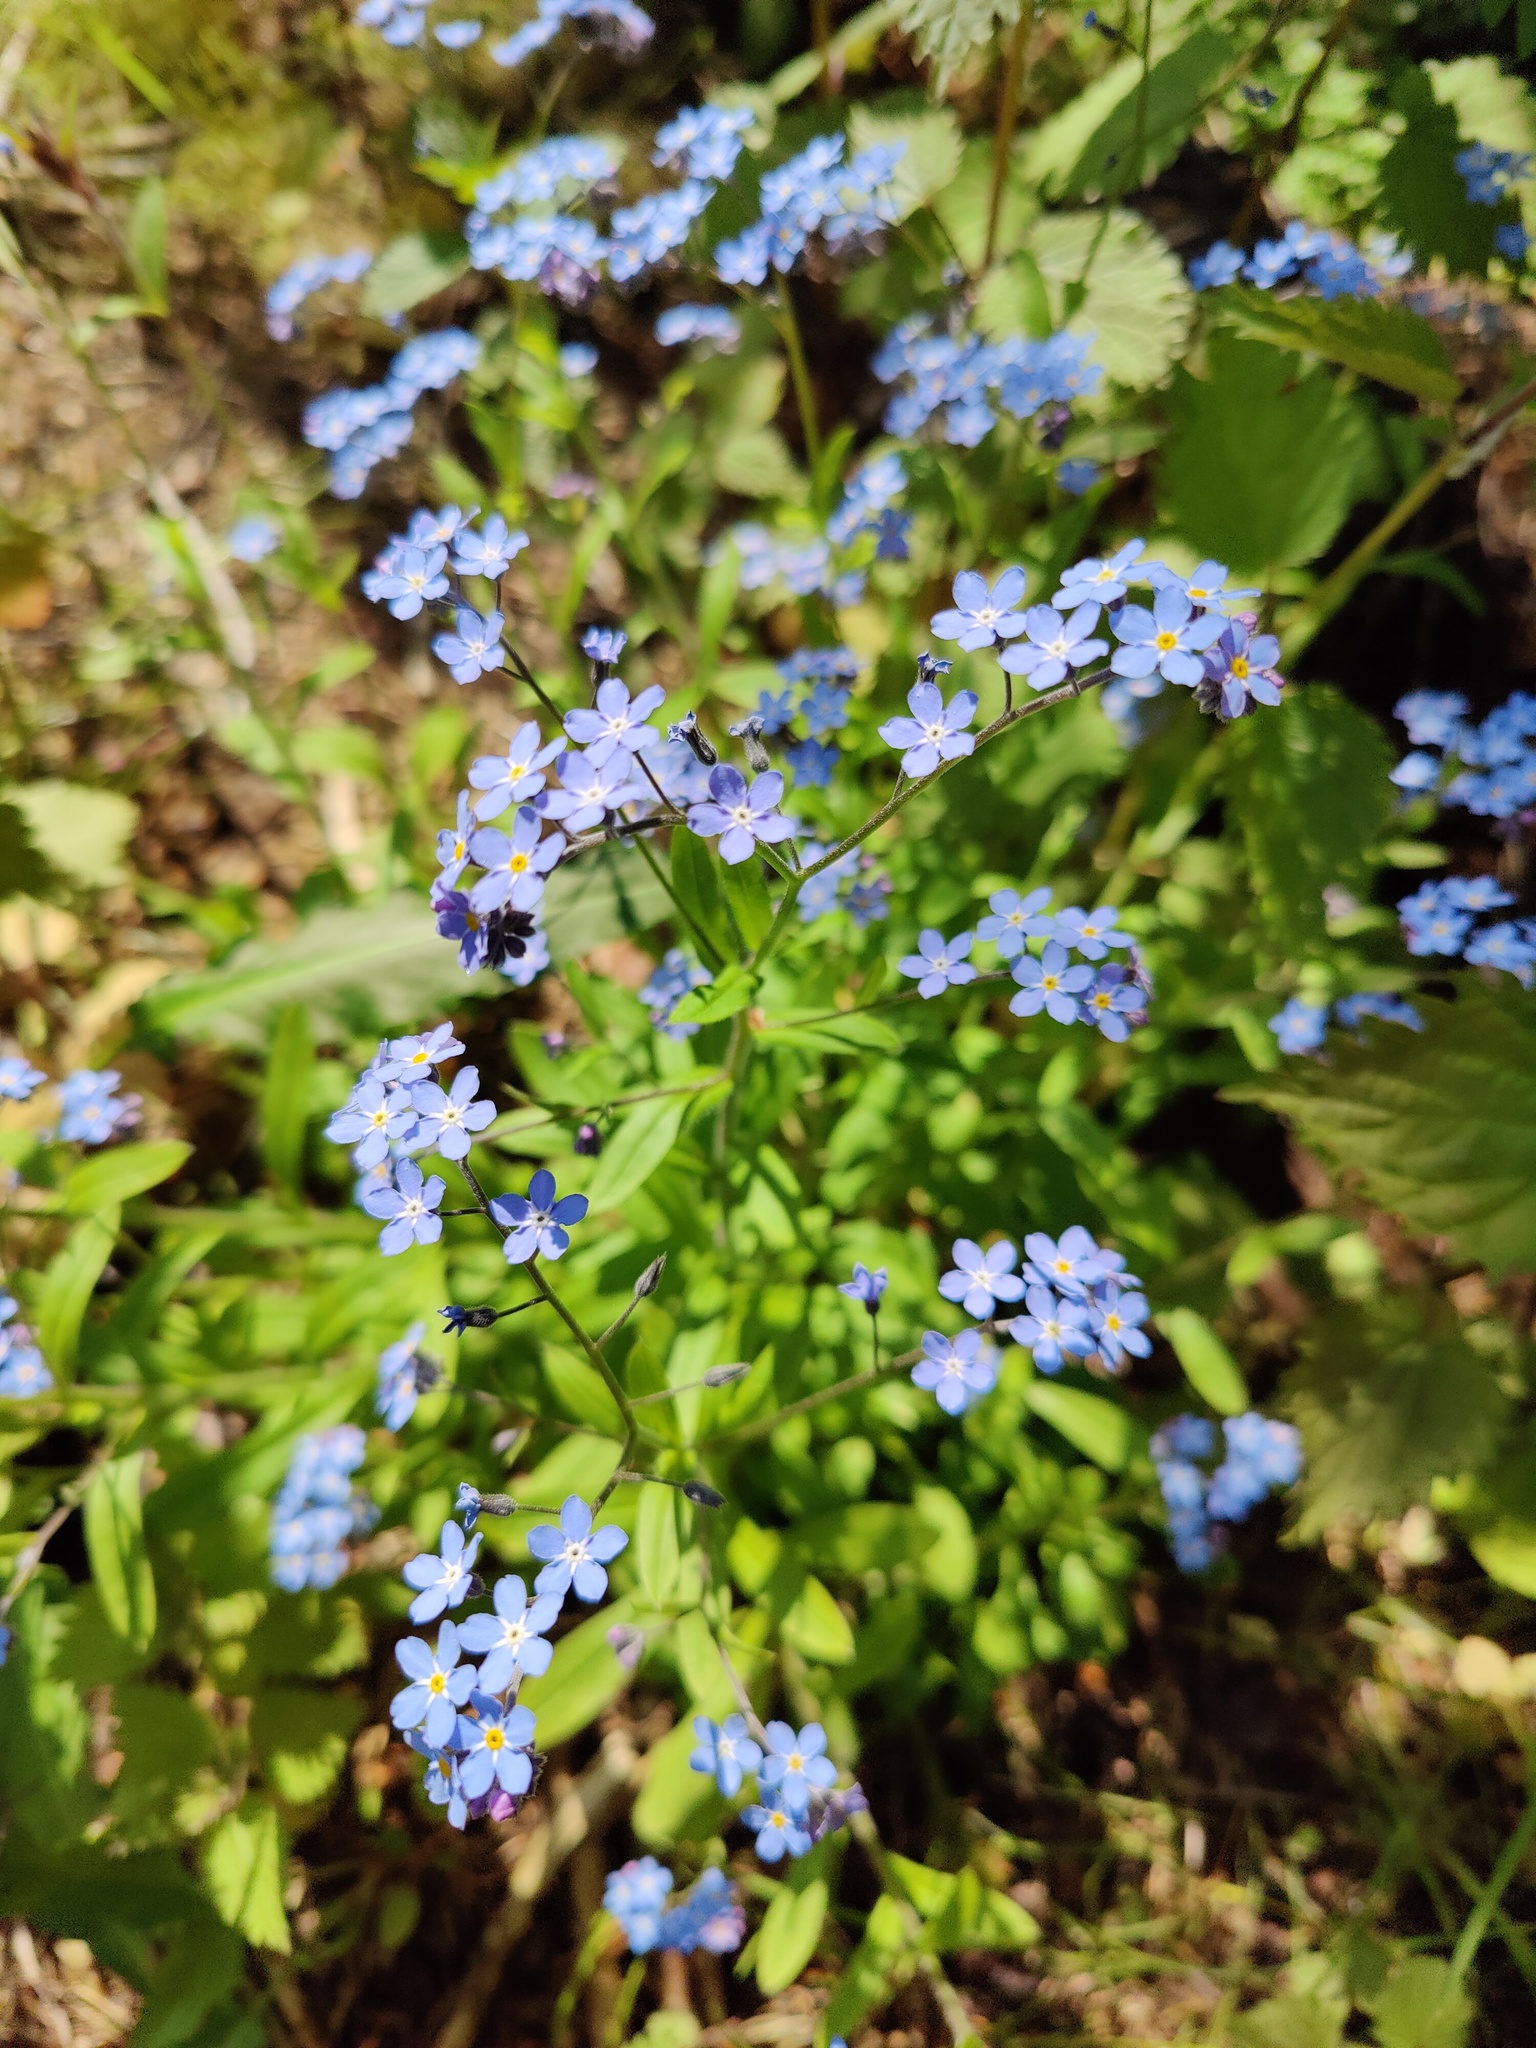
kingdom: Plantae
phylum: Tracheophyta
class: Magnoliopsida
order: Boraginales
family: Boraginaceae
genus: Myosotis
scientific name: Myosotis asiatica
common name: Asian forget-me-not
